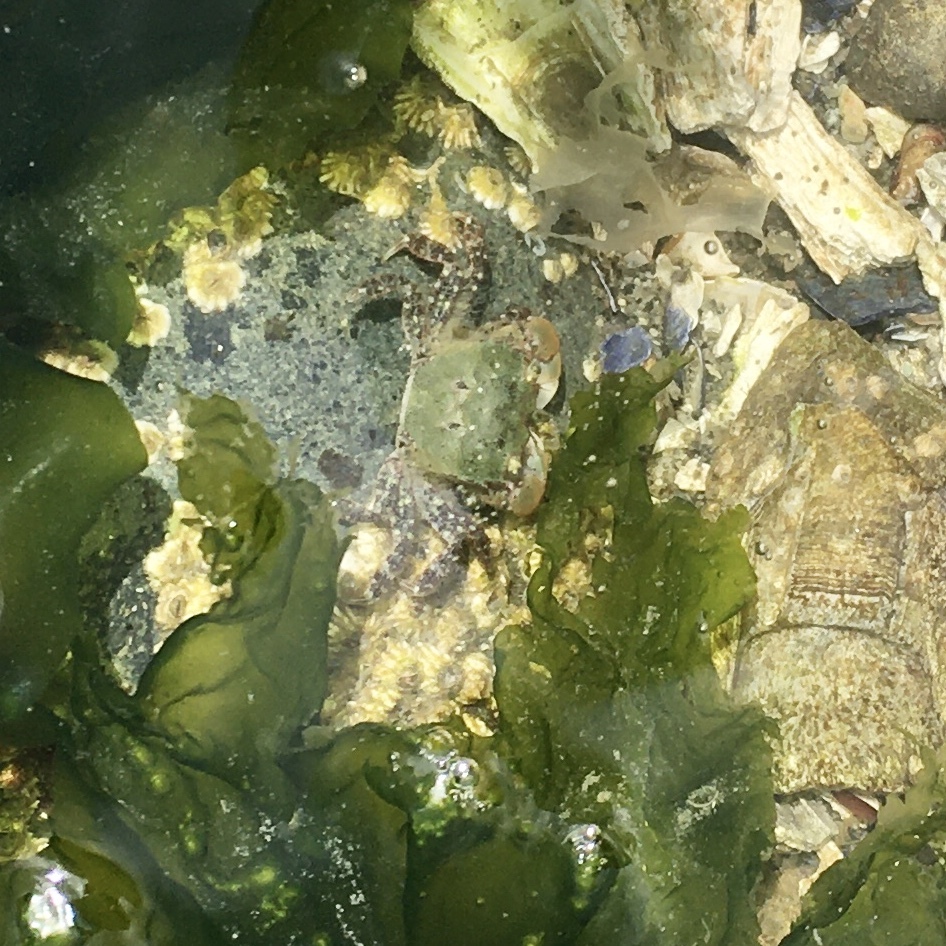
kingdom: Animalia
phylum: Arthropoda
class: Malacostraca
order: Decapoda
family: Varunidae
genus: Hemigrapsus
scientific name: Hemigrapsus oregonensis
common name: Yellow shore crab
